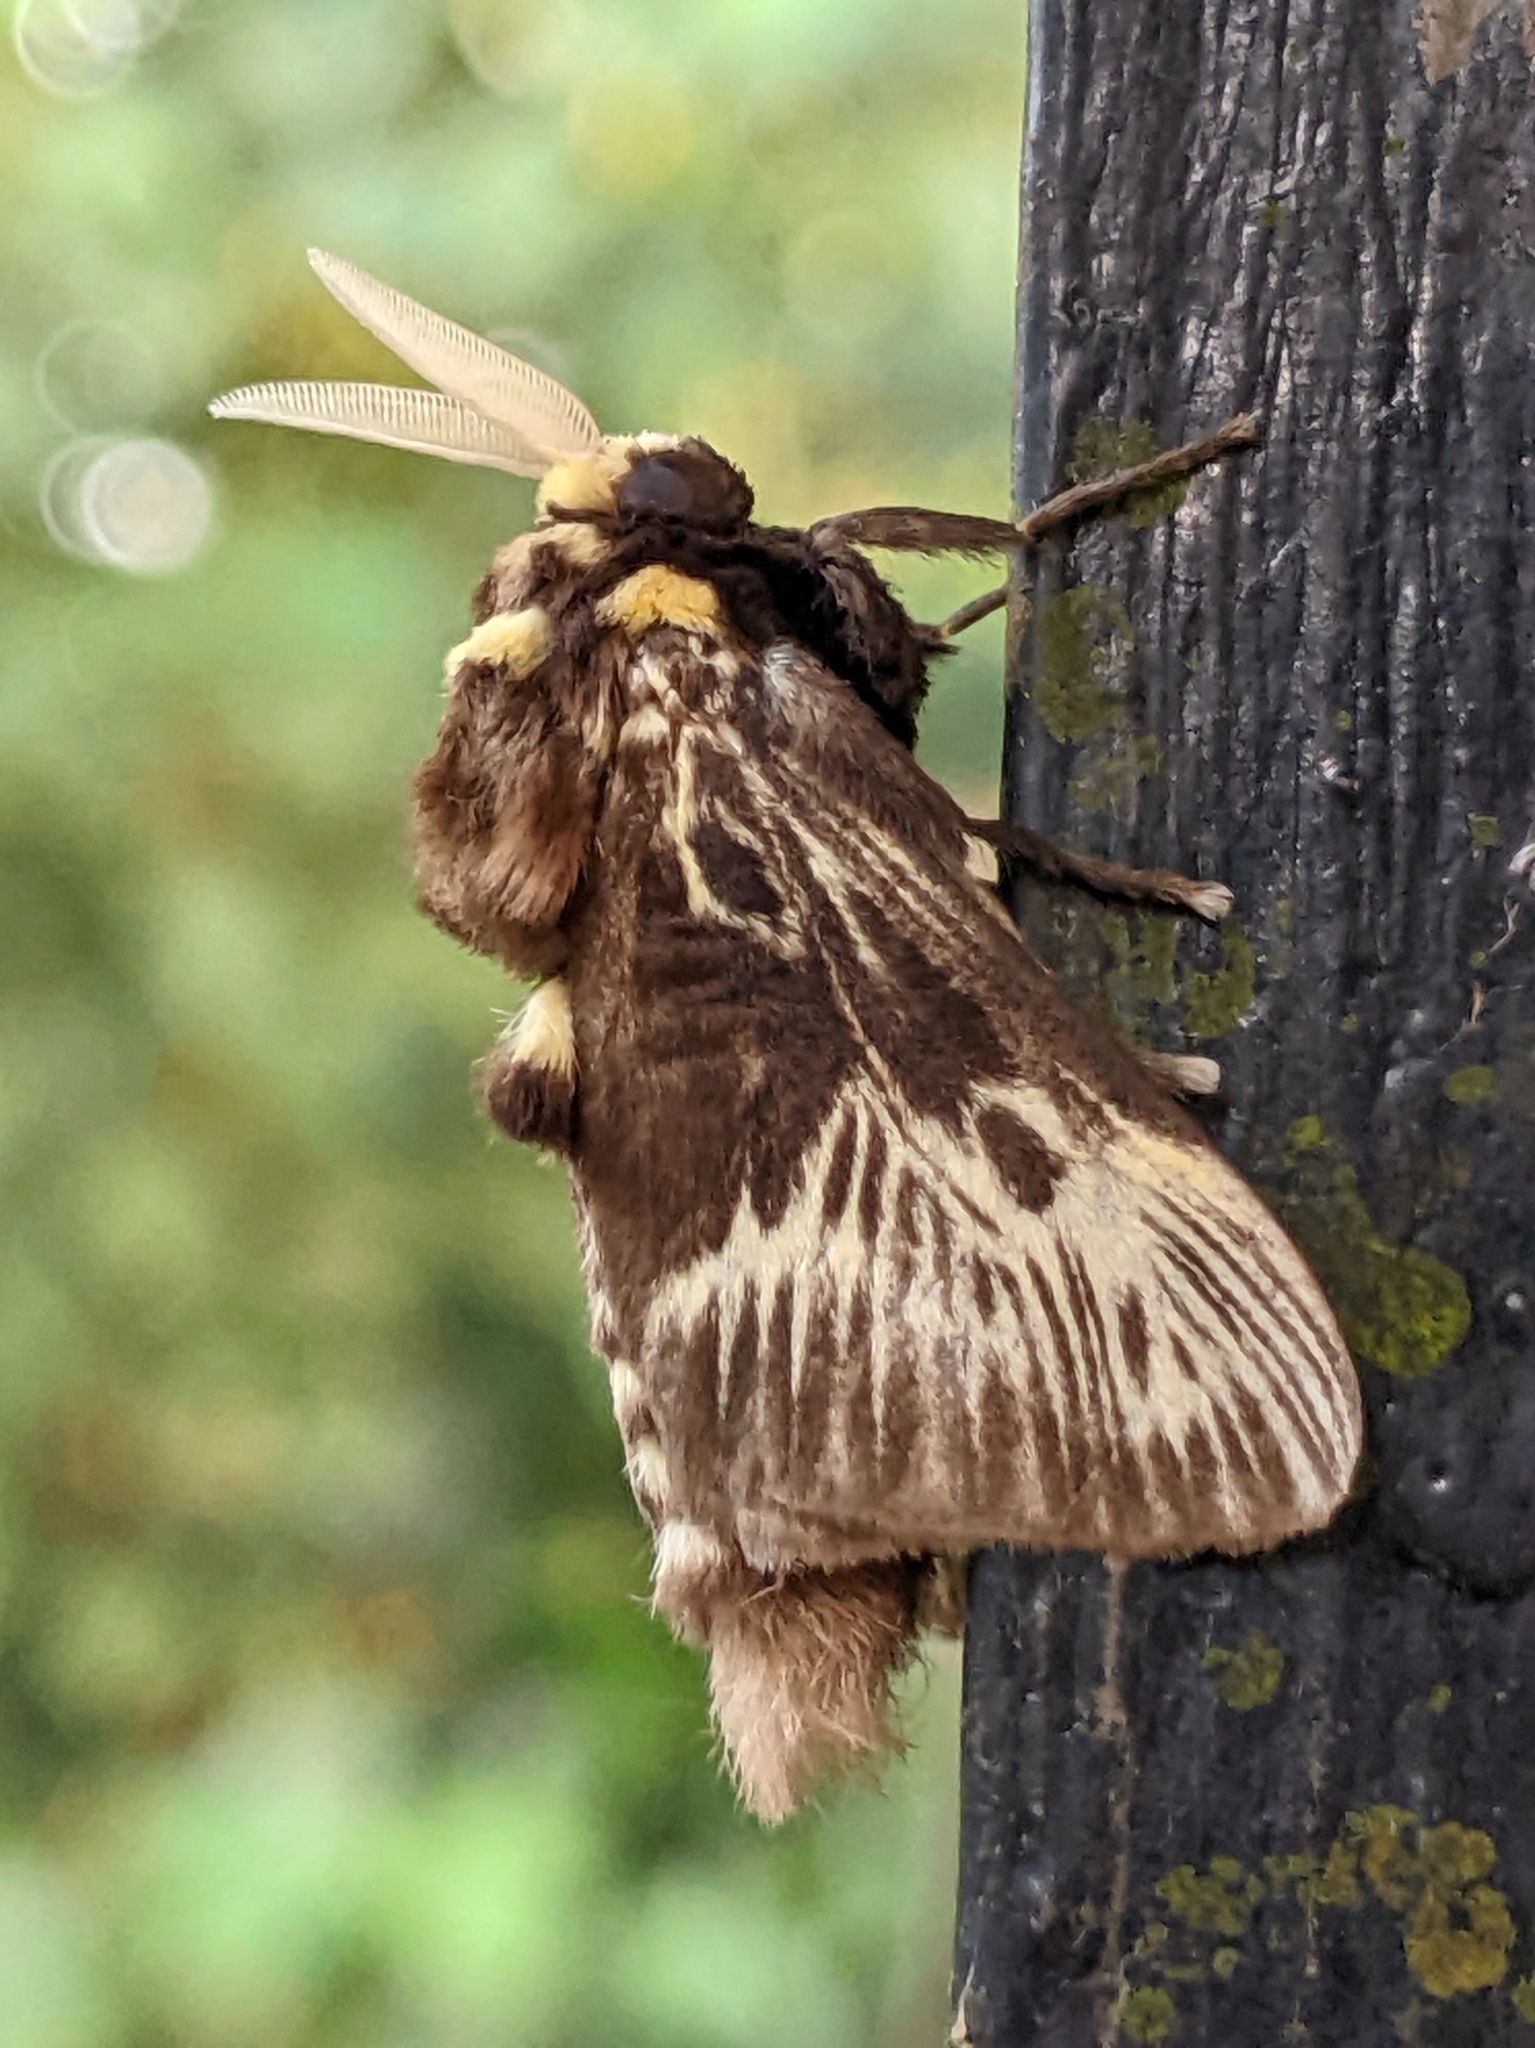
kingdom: Animalia
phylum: Arthropoda
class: Insecta
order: Lepidoptera
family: Megalopygidae
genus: Megalopyge
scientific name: Megalopyge albicollis
